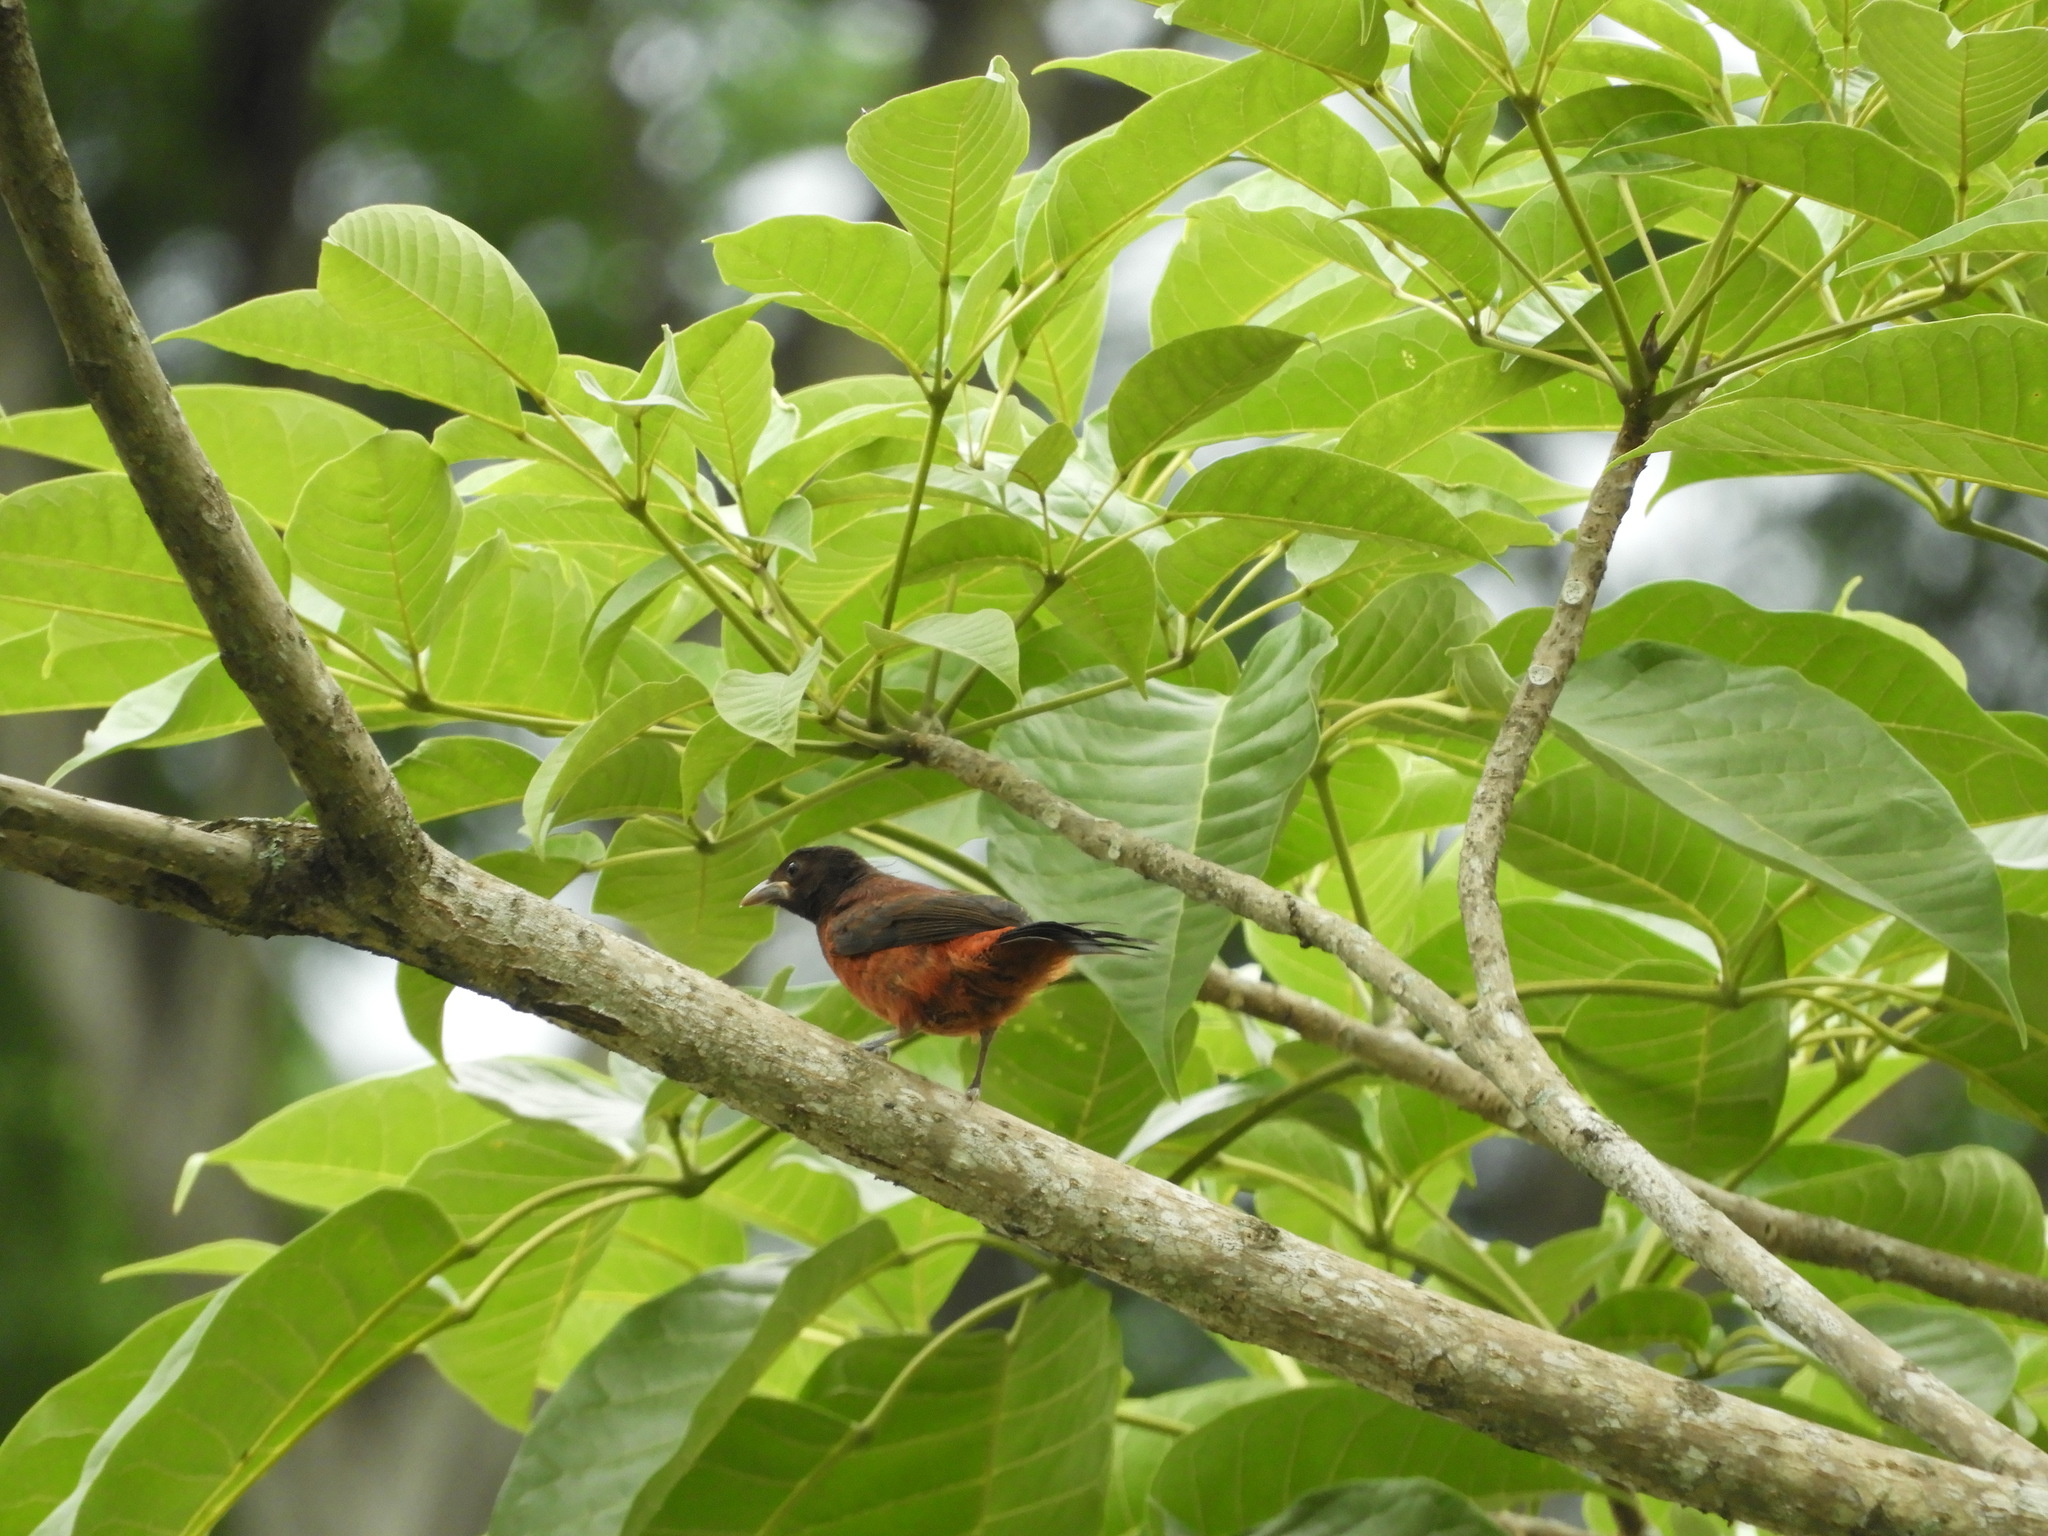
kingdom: Animalia
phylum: Chordata
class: Aves
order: Passeriformes
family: Thraupidae
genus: Ramphocelus
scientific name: Ramphocelus dimidiatus
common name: Crimson-backed tanager
